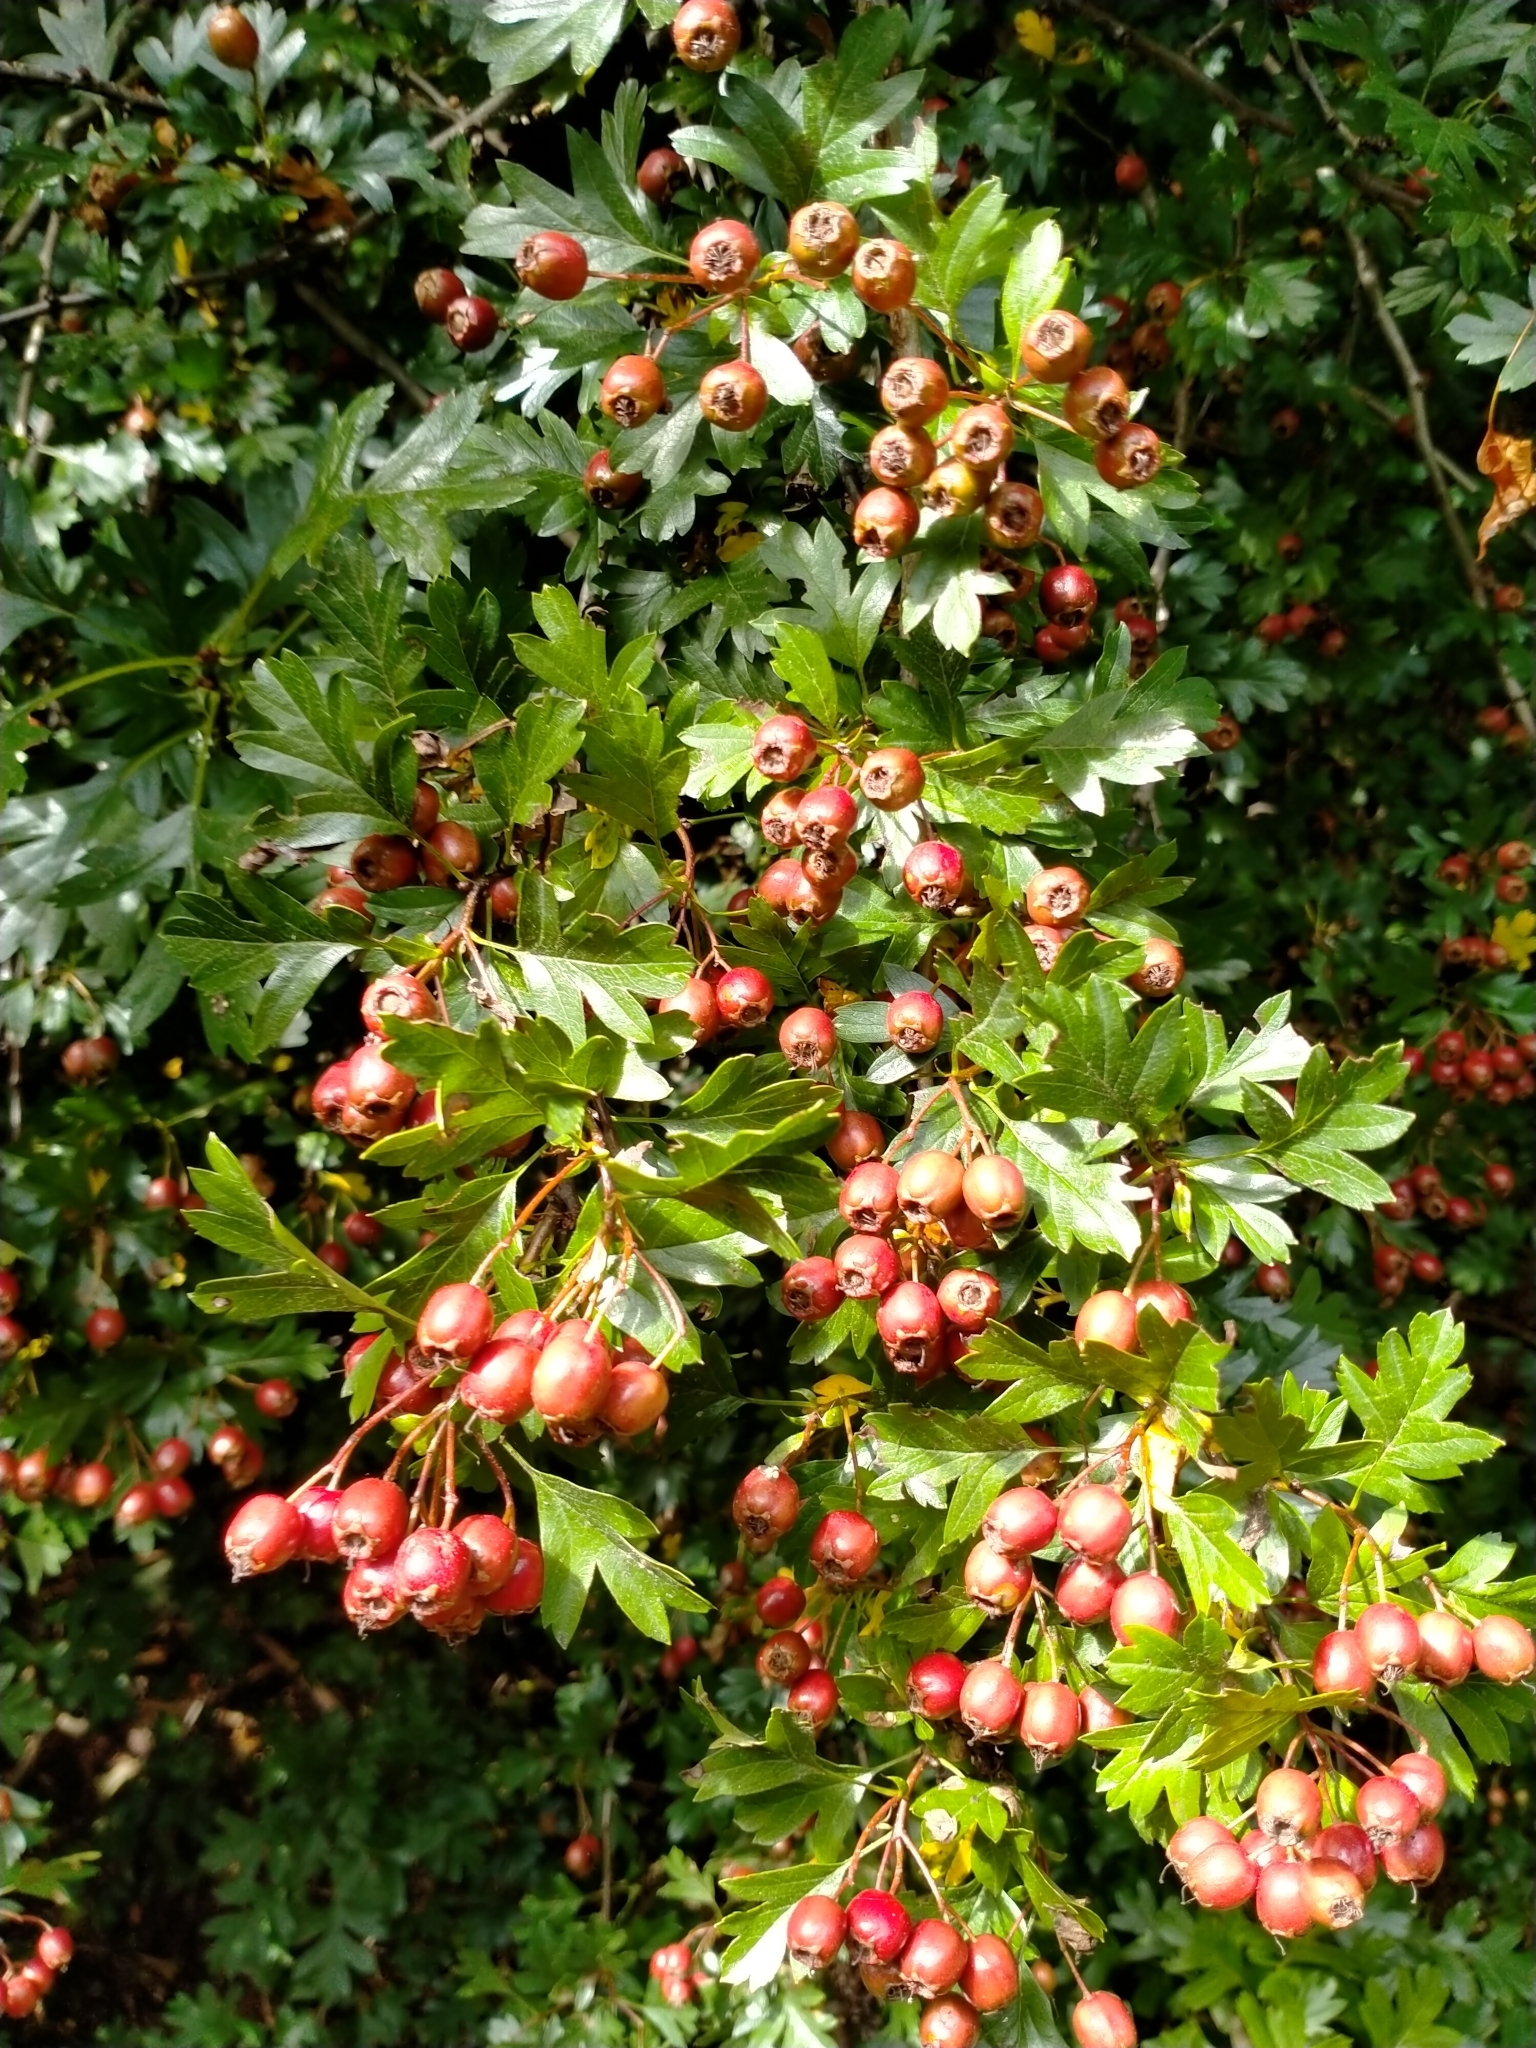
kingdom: Plantae
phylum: Tracheophyta
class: Magnoliopsida
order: Rosales
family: Rosaceae
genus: Crataegus
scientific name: Crataegus monogyna
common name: Hawthorn
